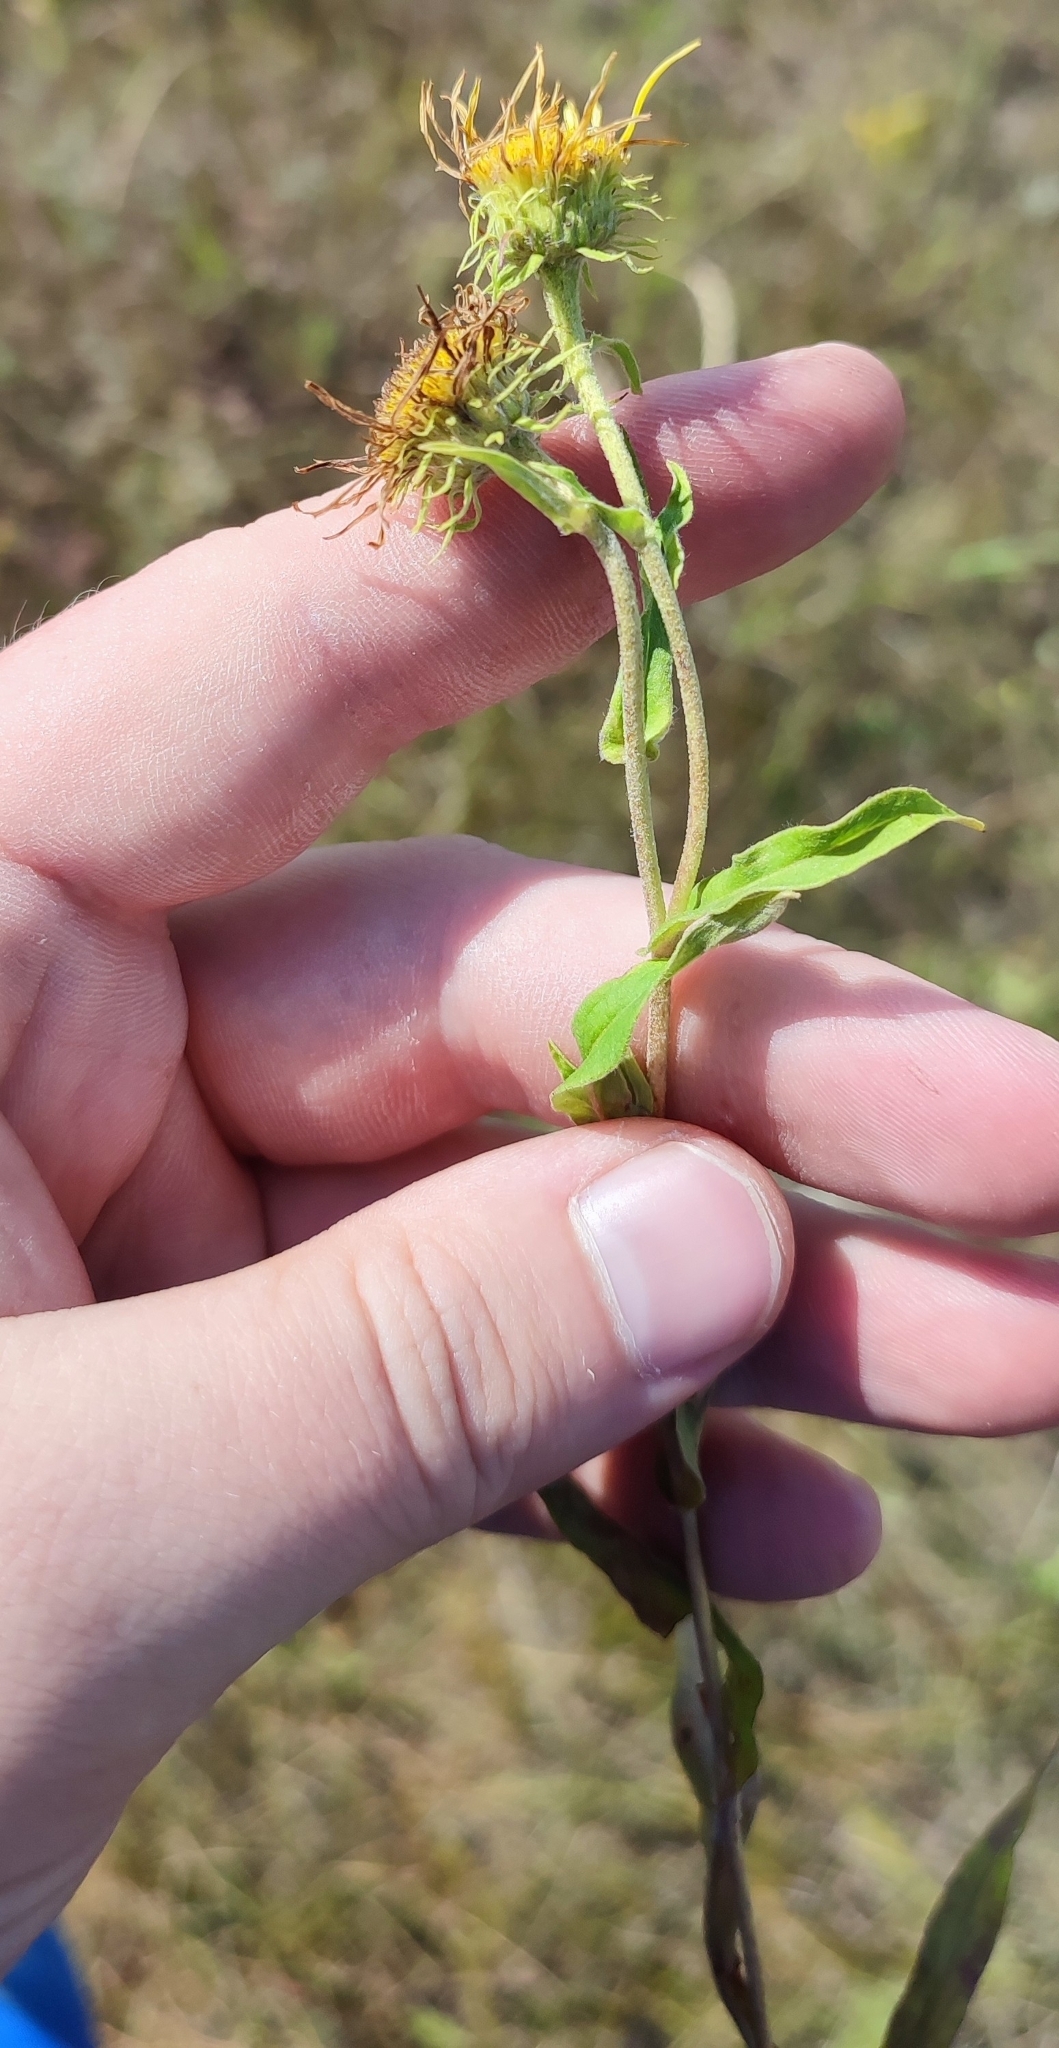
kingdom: Plantae
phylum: Tracheophyta
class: Magnoliopsida
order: Asterales
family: Asteraceae
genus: Pentanema
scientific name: Pentanema britannicum
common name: British elecampane
